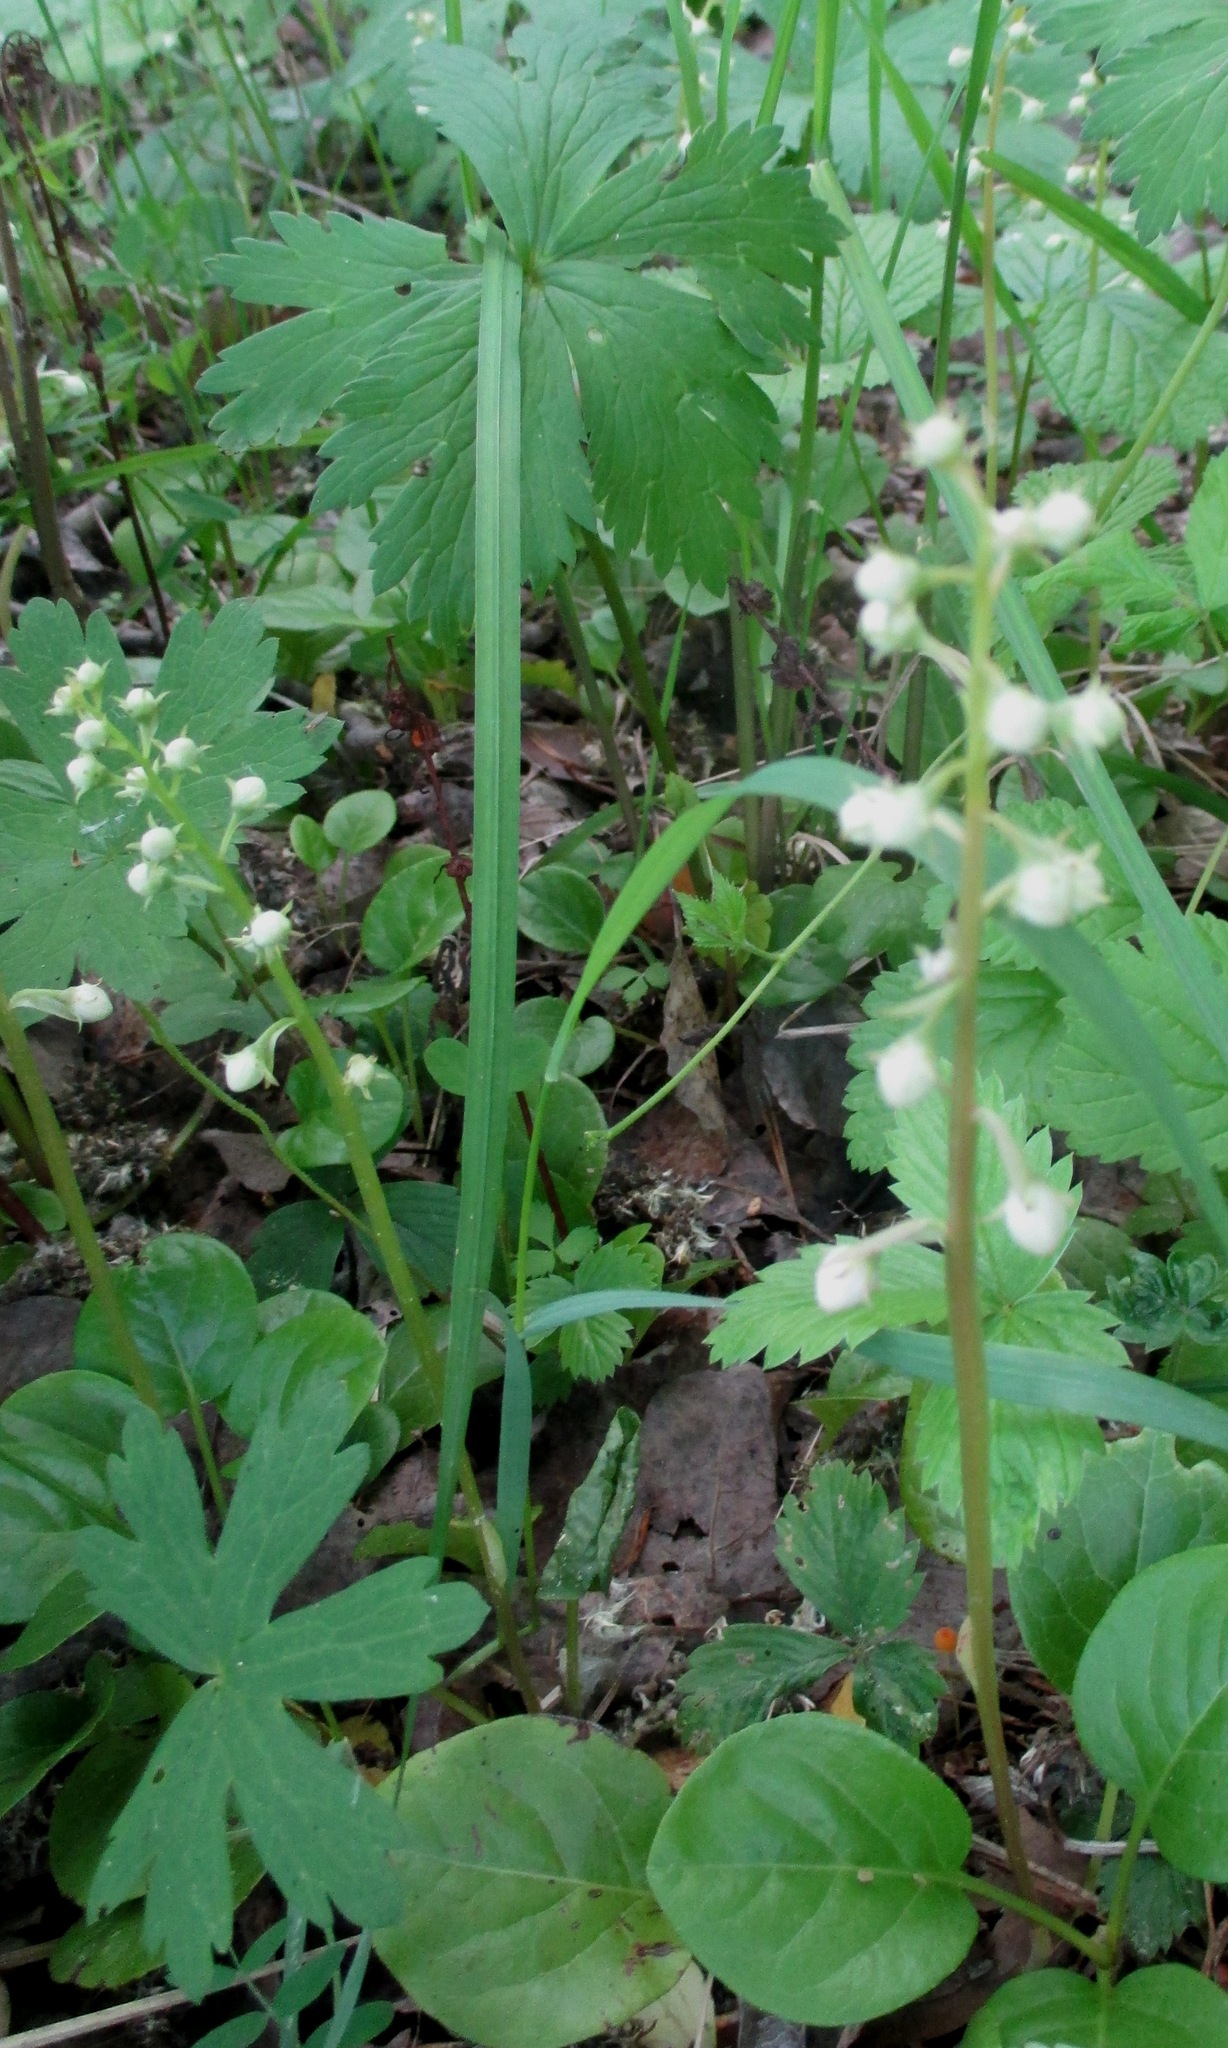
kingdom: Plantae
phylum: Tracheophyta
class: Magnoliopsida
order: Ericales
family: Ericaceae
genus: Pyrola
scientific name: Pyrola rotundifolia
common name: Round-leaved wintergreen
